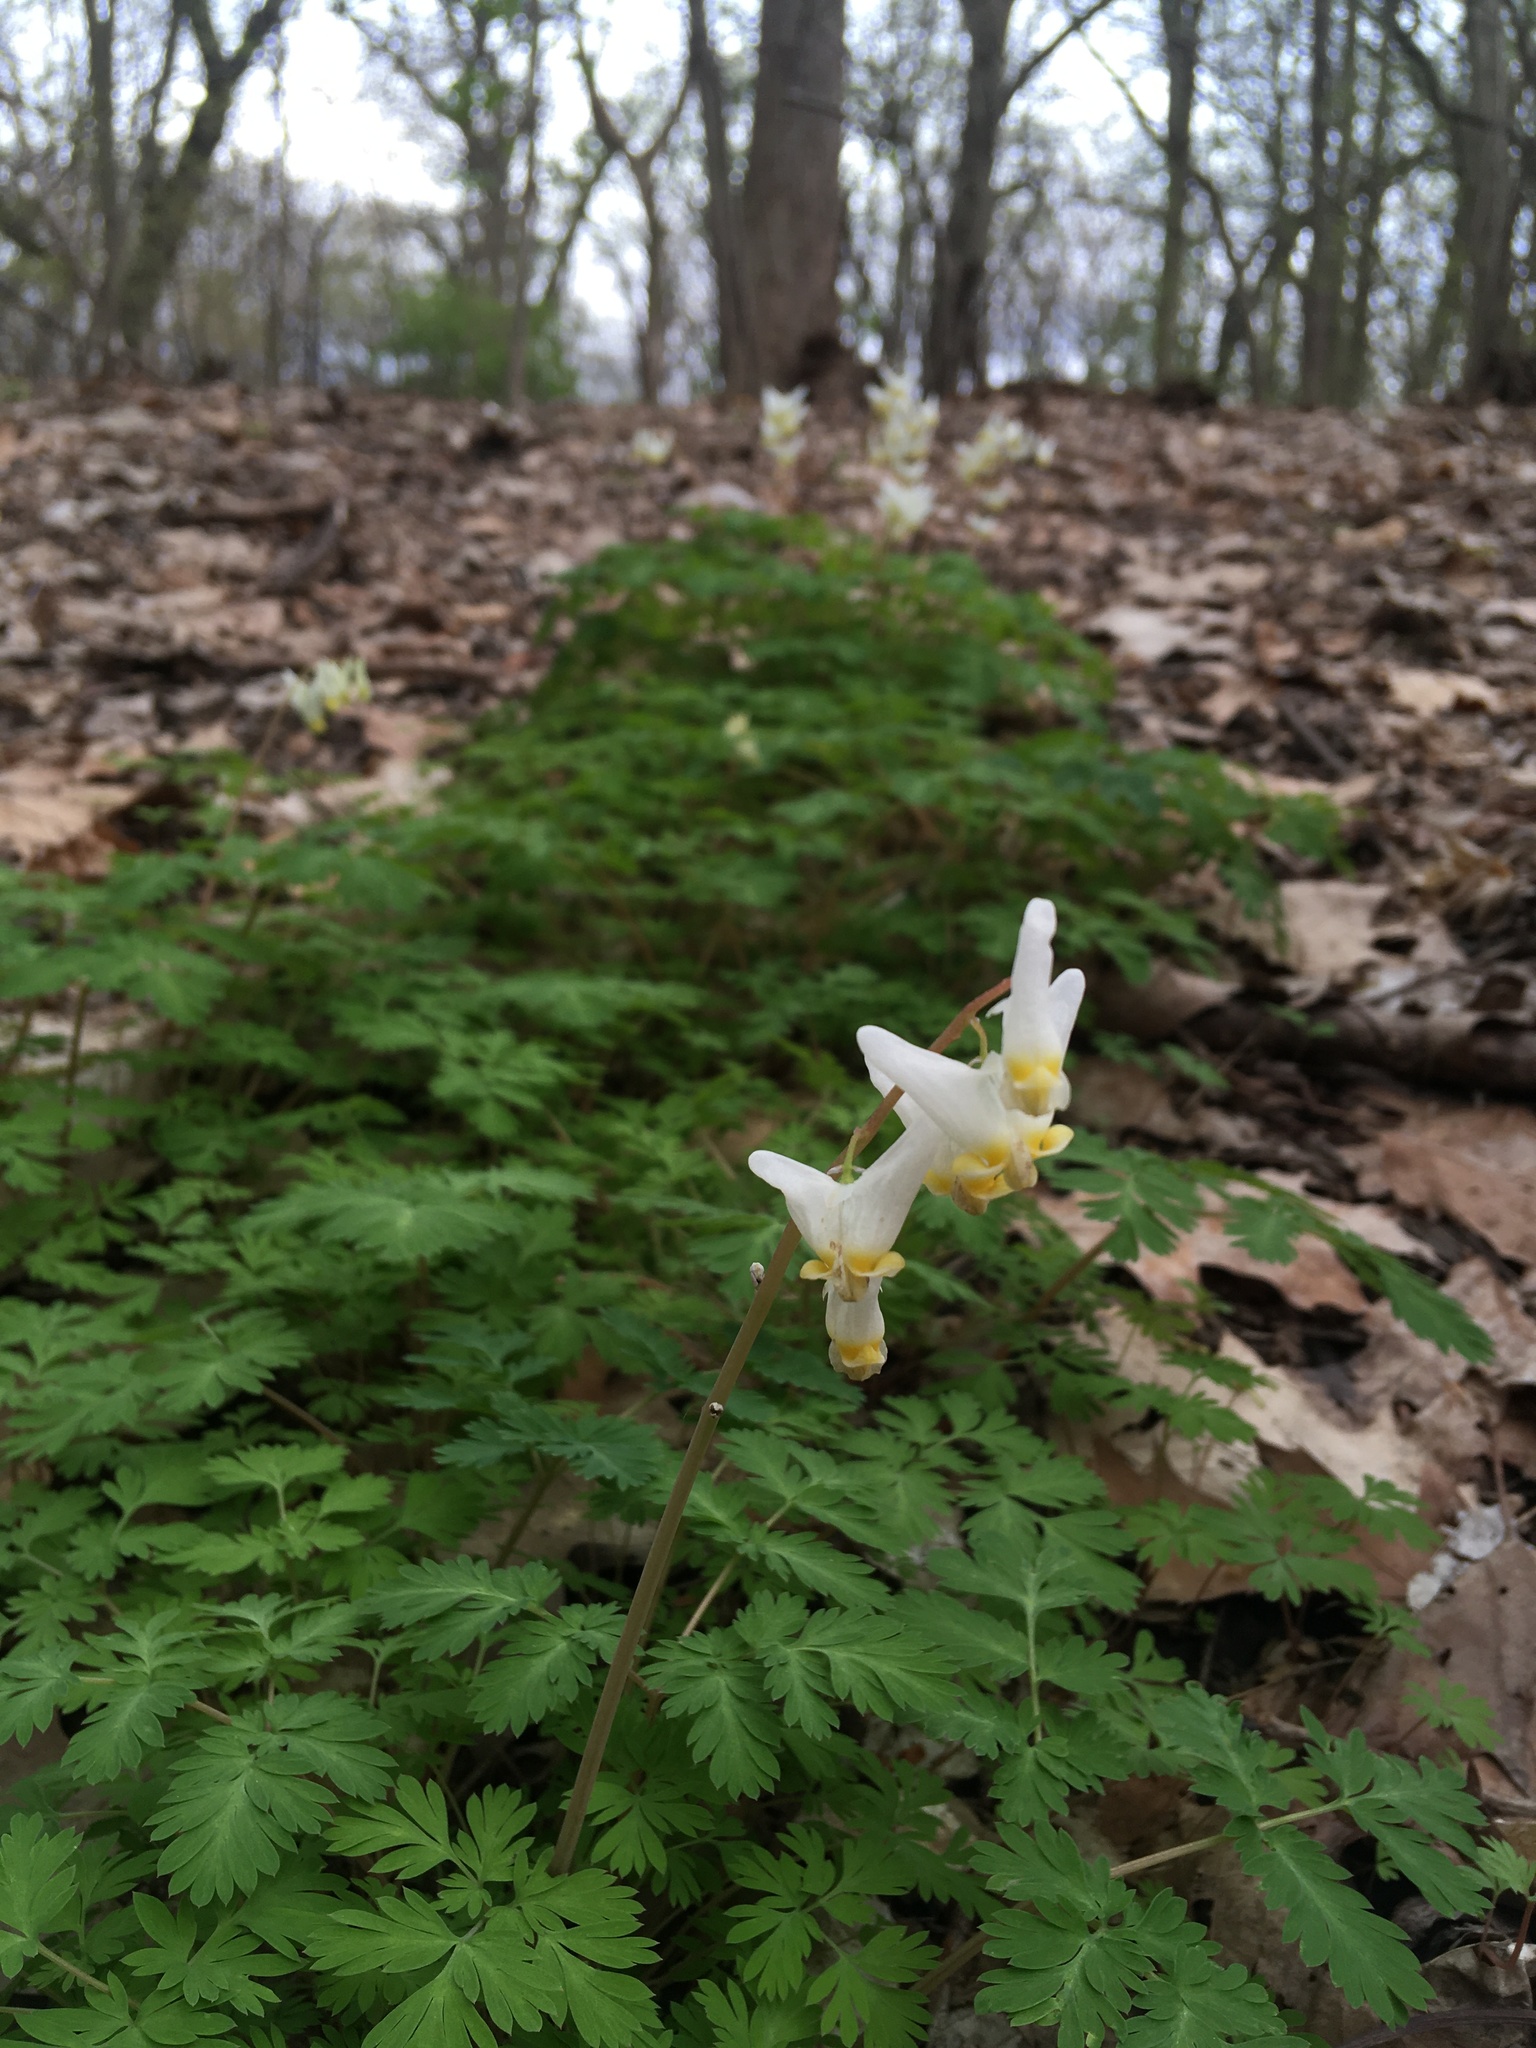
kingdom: Plantae
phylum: Tracheophyta
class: Magnoliopsida
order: Ranunculales
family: Papaveraceae
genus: Dicentra
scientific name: Dicentra cucullaria
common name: Dutchman's breeches
